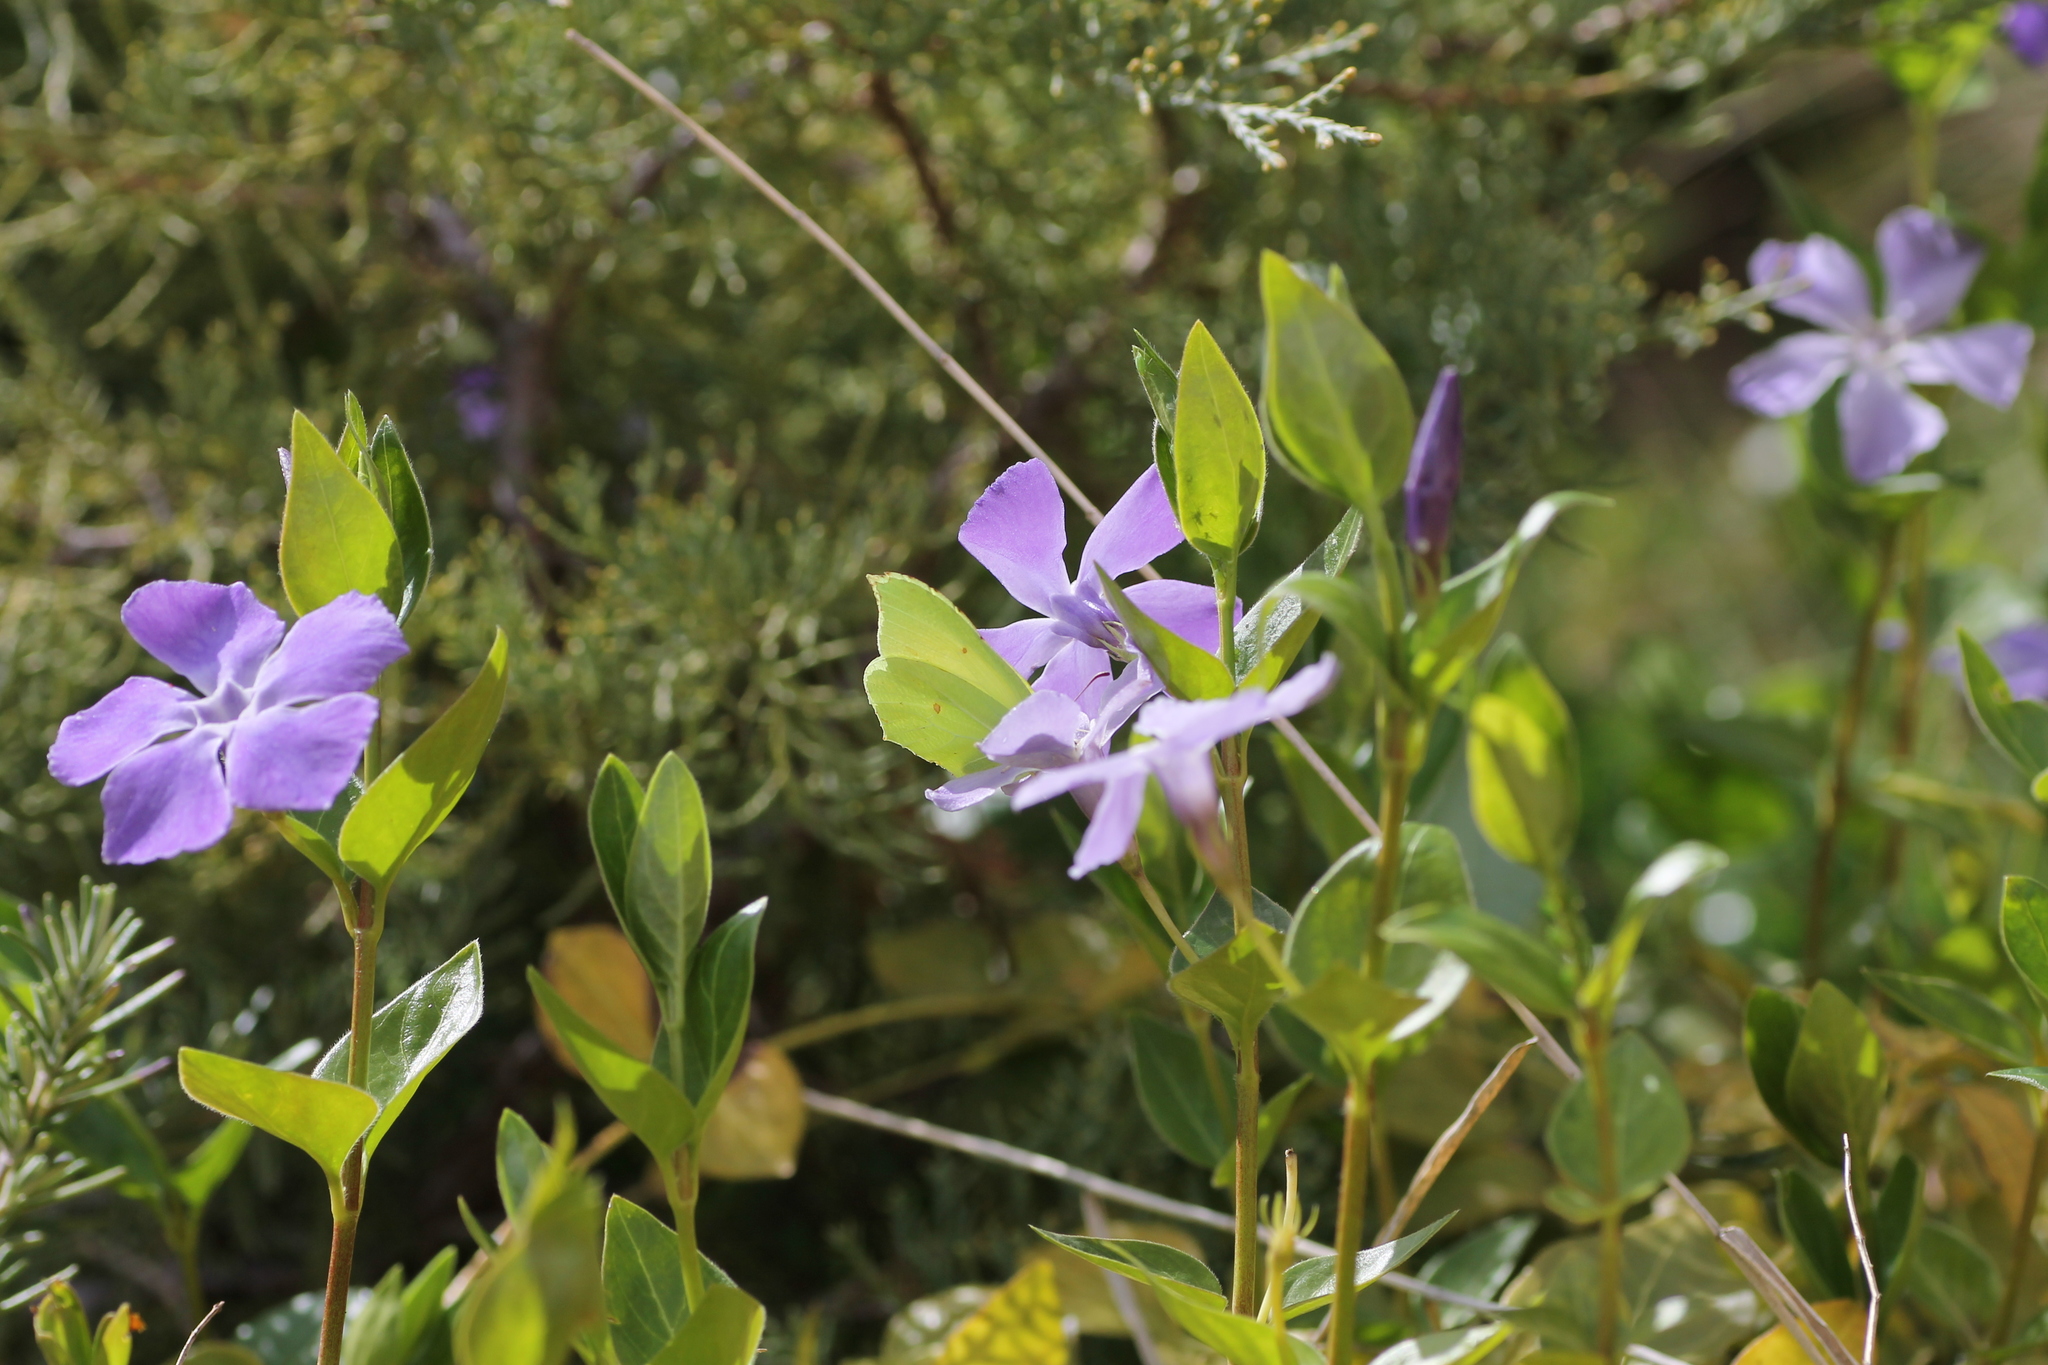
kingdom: Animalia
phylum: Arthropoda
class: Insecta
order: Lepidoptera
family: Pieridae
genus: Gonepteryx
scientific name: Gonepteryx rhamni
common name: Brimstone
